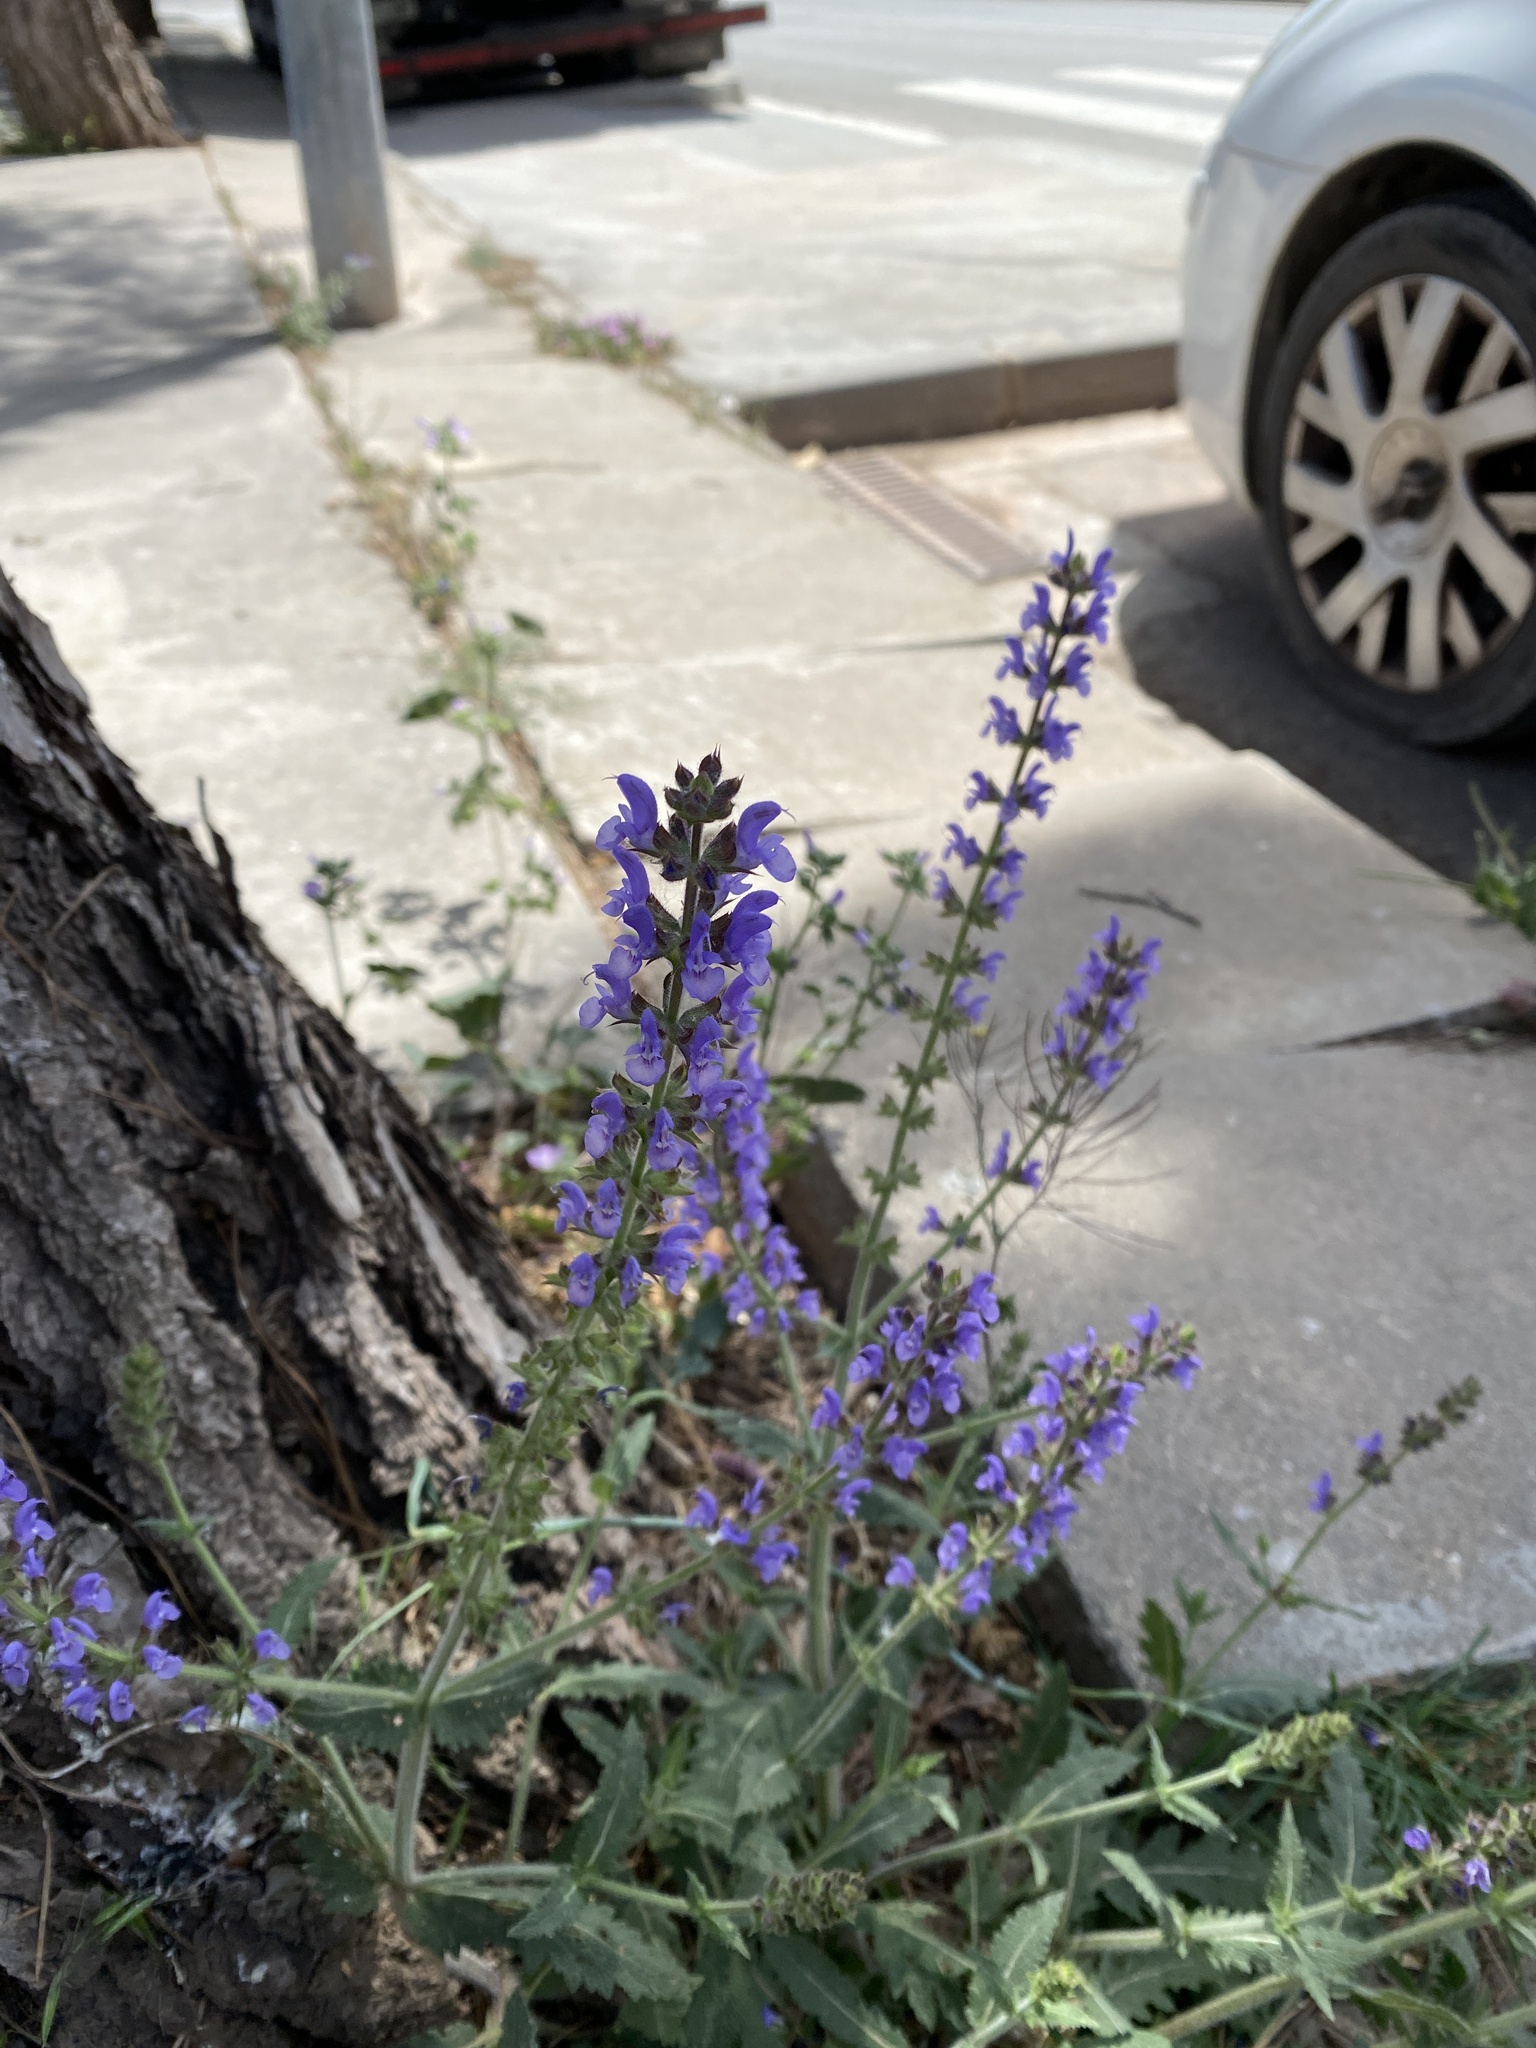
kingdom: Plantae
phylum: Tracheophyta
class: Magnoliopsida
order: Lamiales
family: Lamiaceae
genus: Salvia
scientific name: Salvia verbenaca
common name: Wild clary
